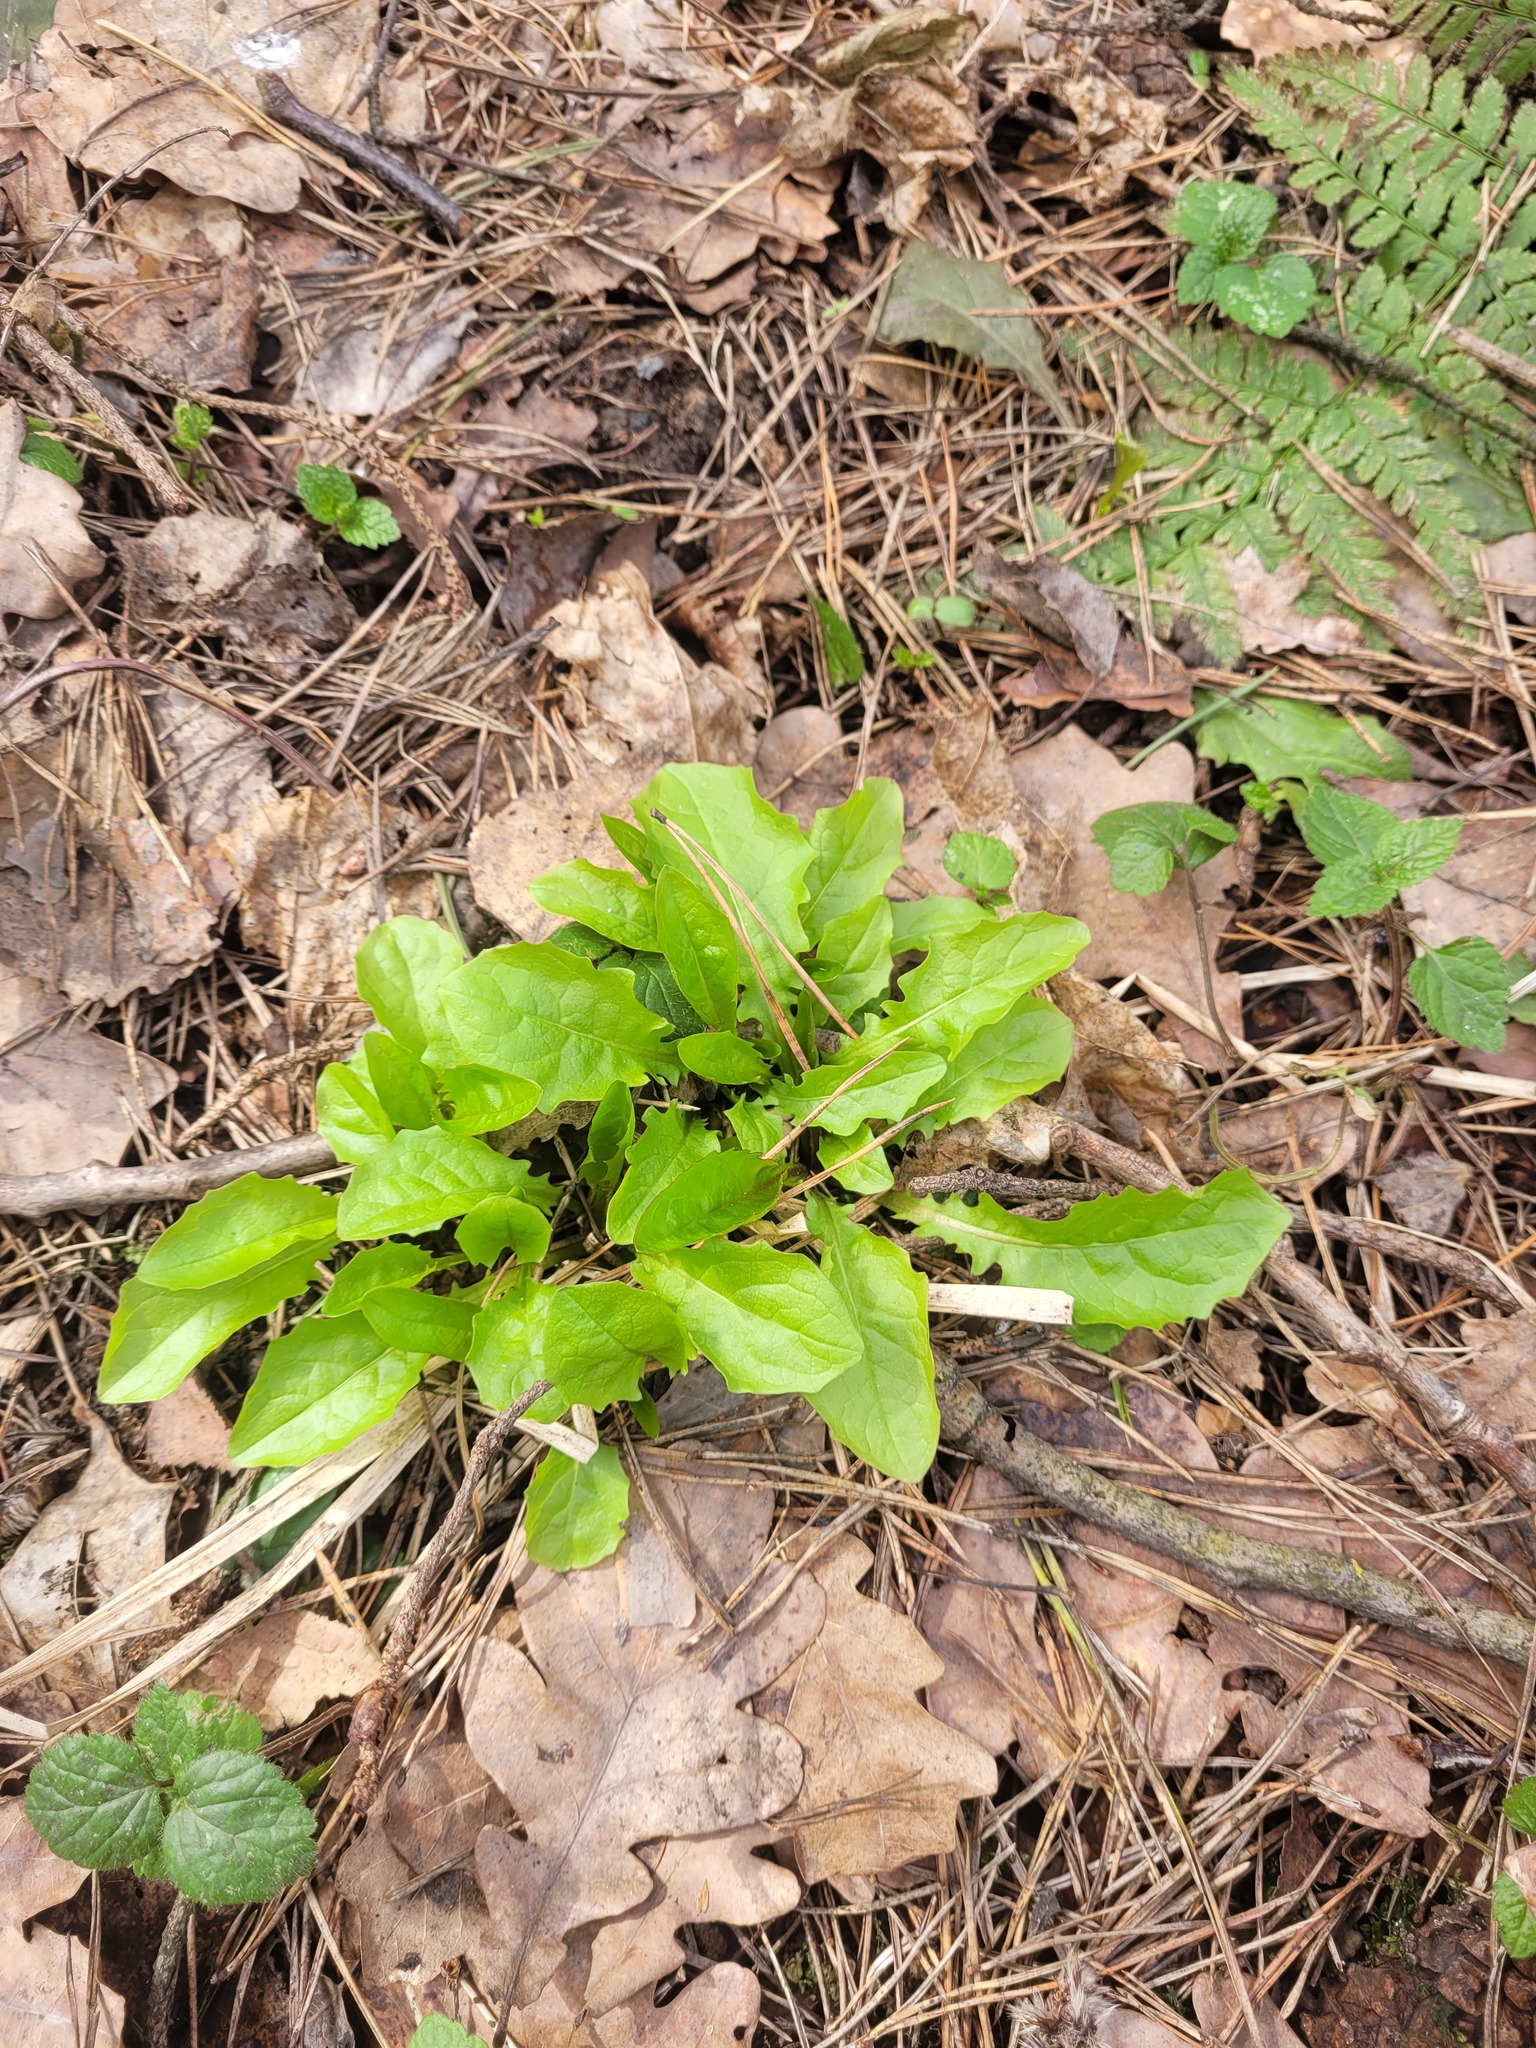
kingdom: Plantae
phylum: Tracheophyta
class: Magnoliopsida
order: Asterales
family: Asteraceae
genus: Crepis
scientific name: Crepis paludosa
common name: Marsh hawk's-beard
